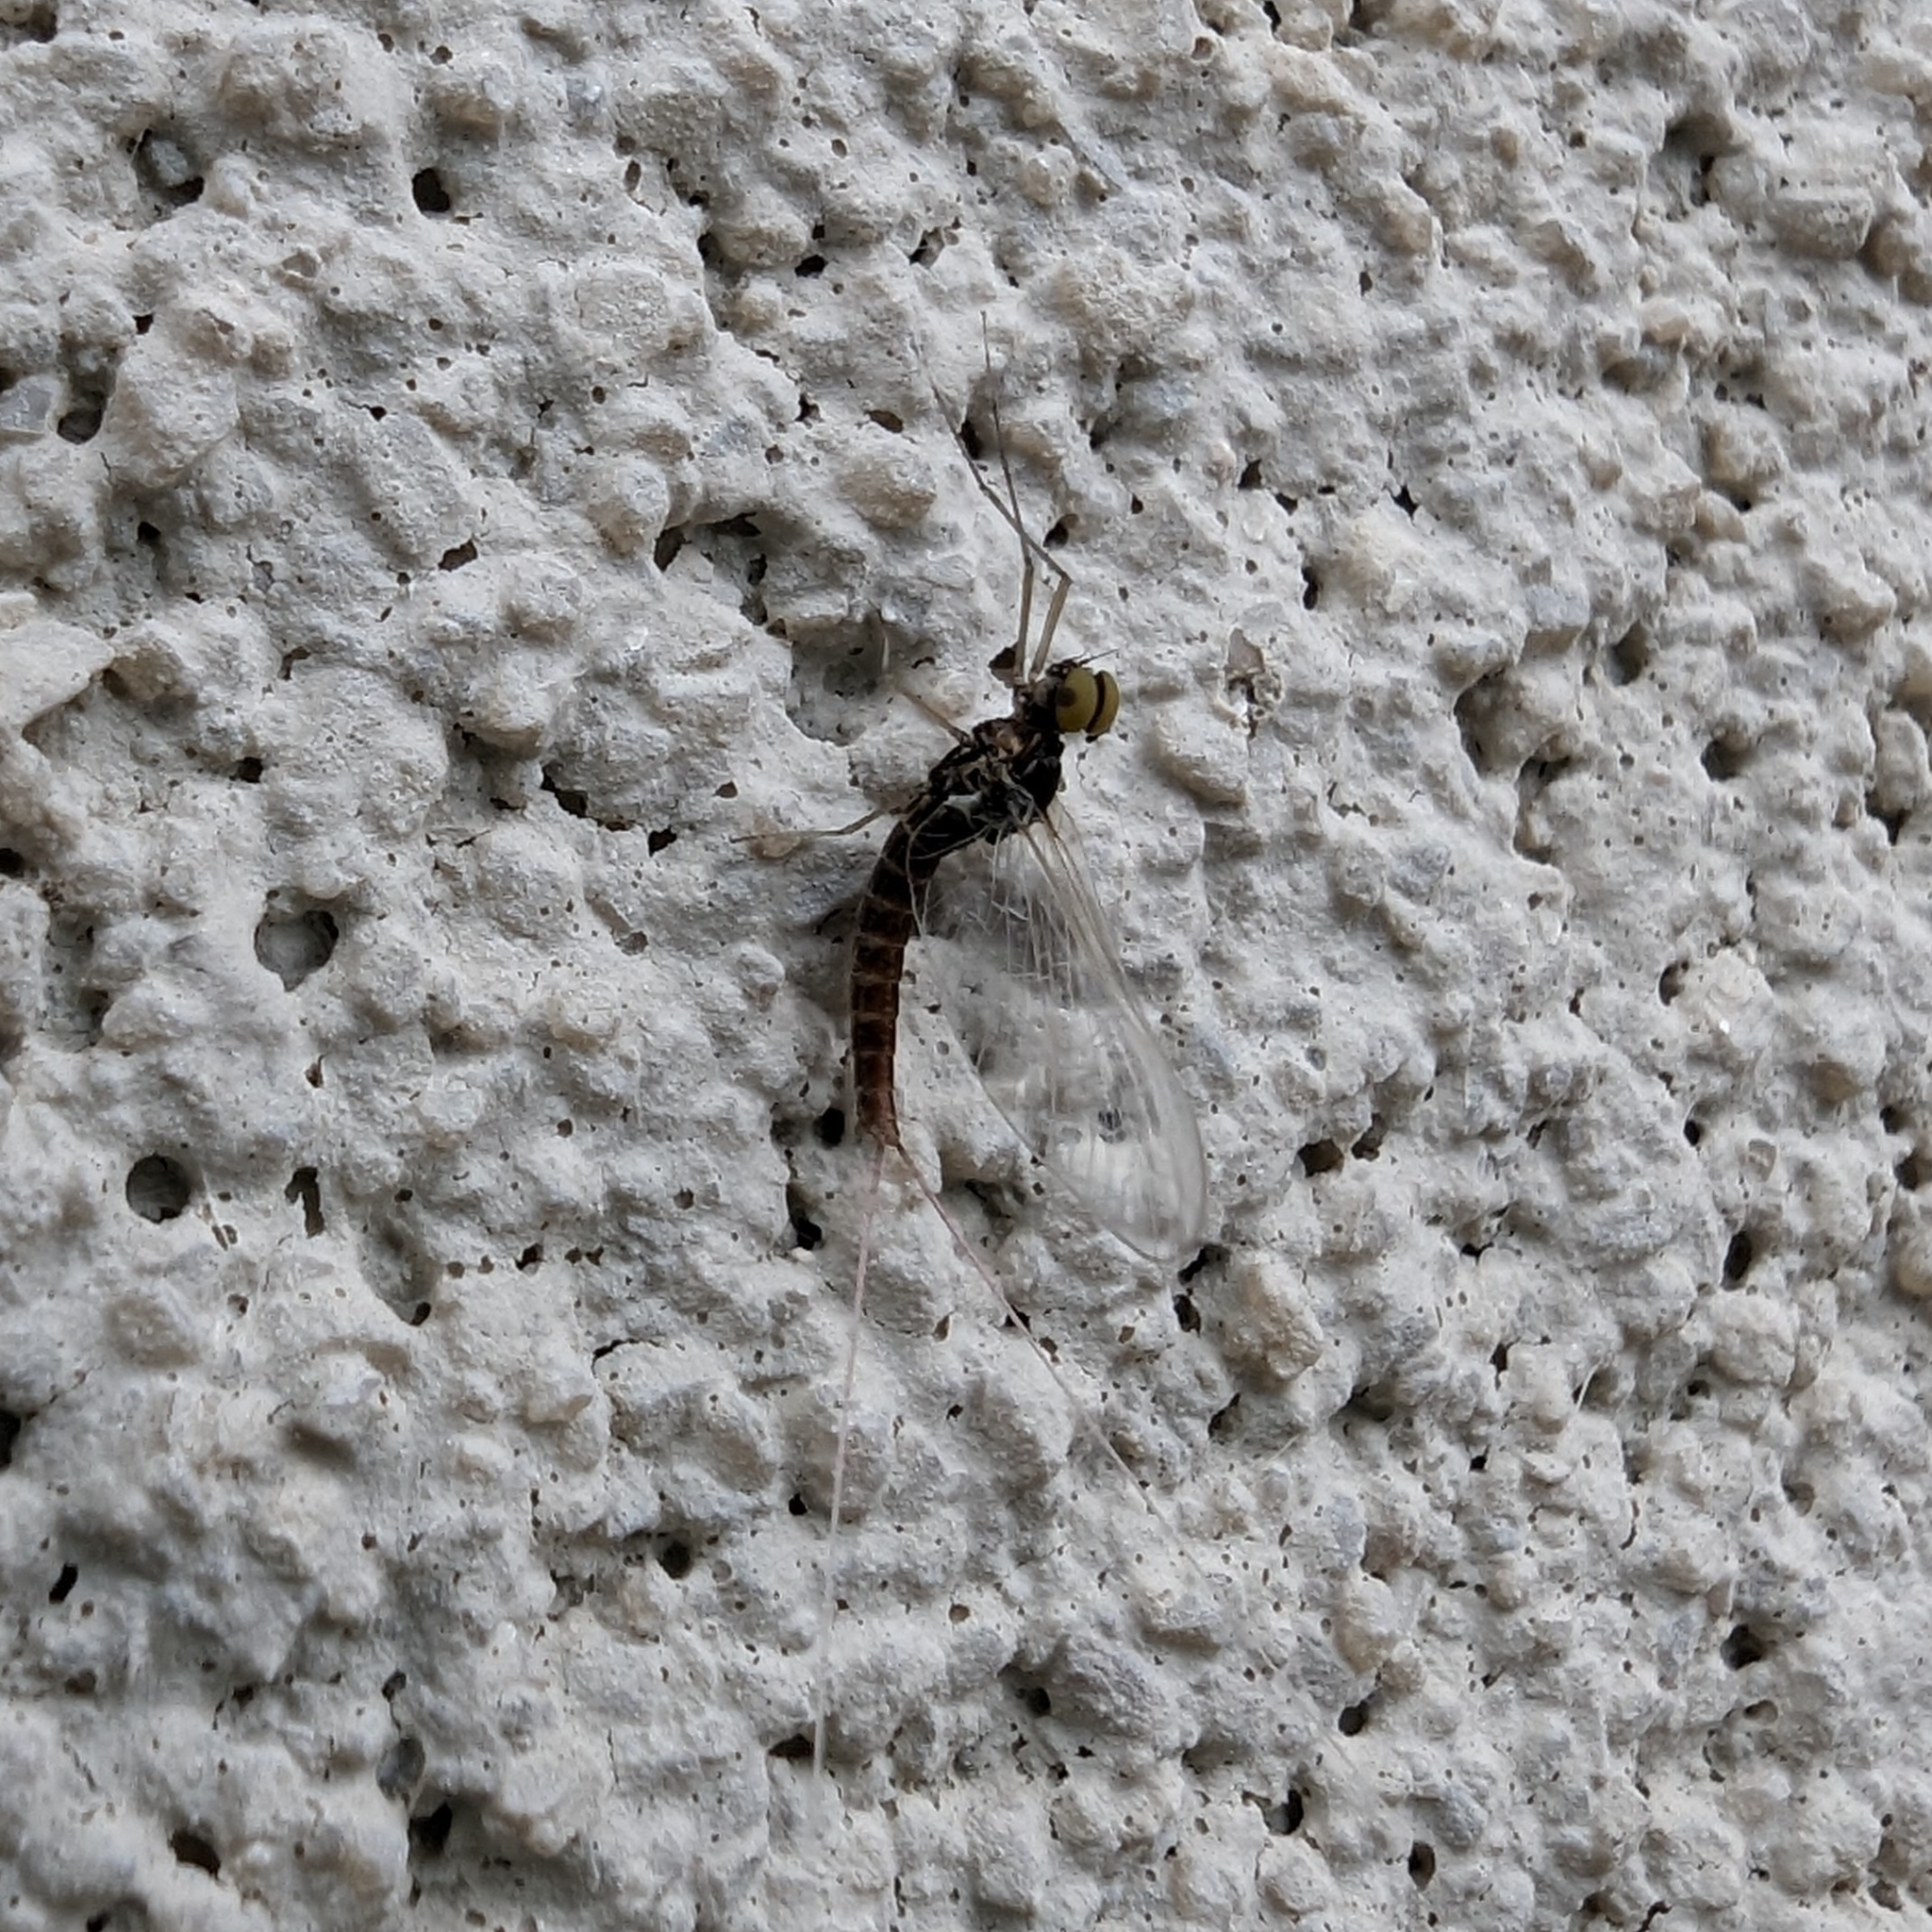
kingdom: Animalia
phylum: Arthropoda
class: Insecta
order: Ephemeroptera
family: Baetidae
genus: Callibaetis
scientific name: Callibaetis ferrugineus
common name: Red speckled dun
